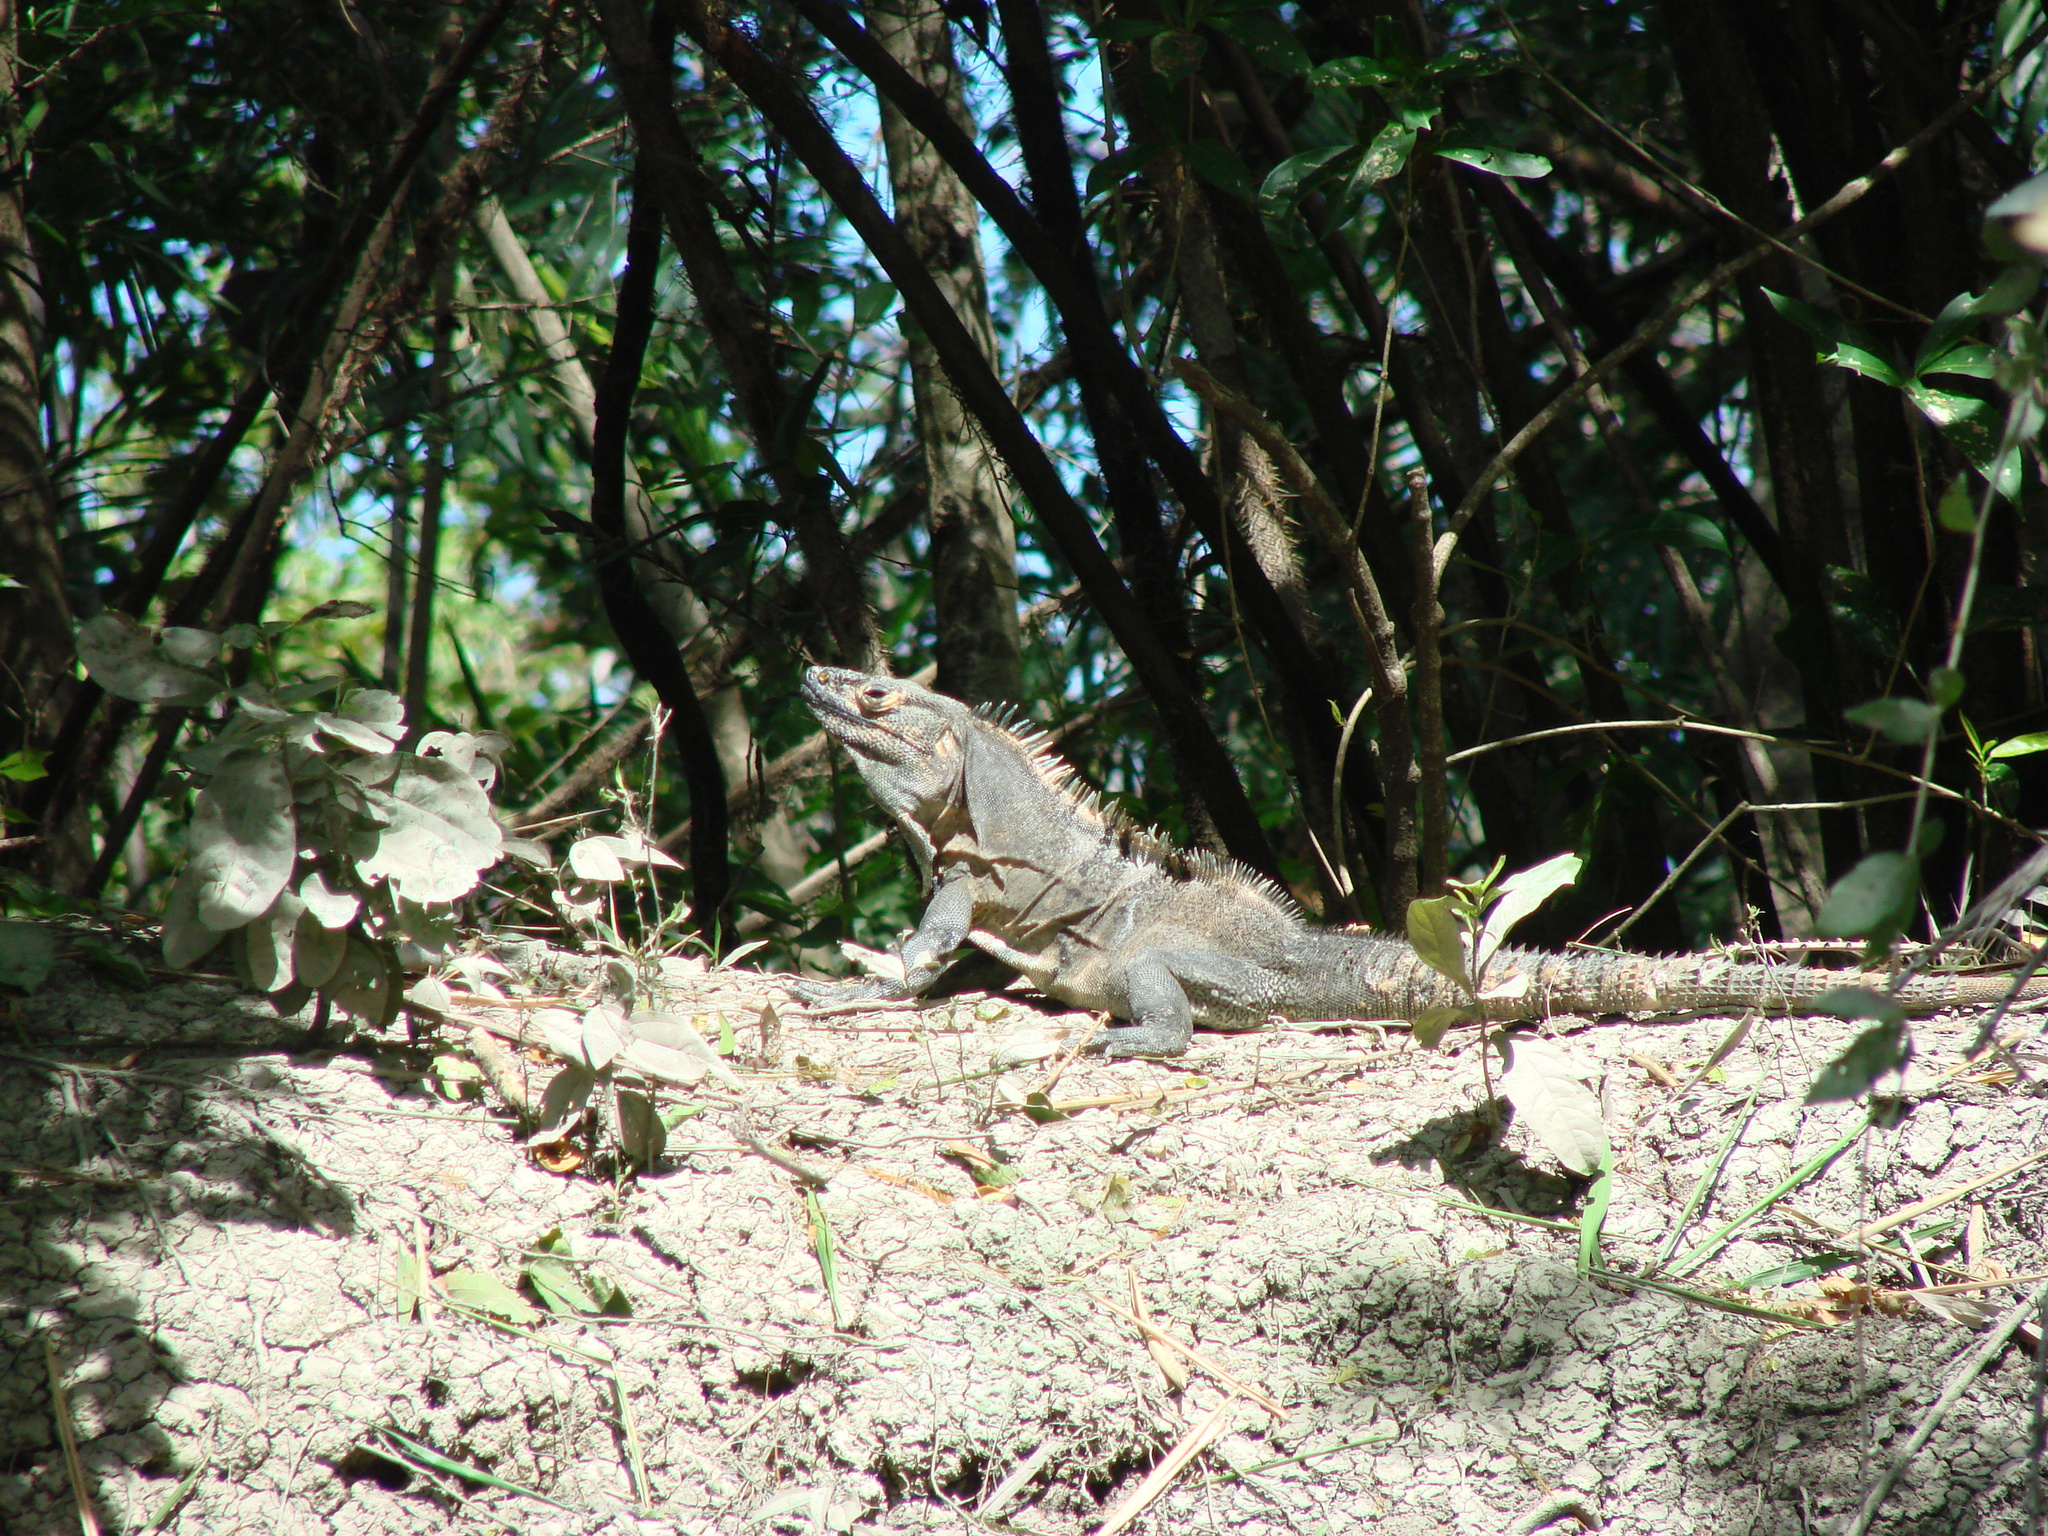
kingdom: Animalia
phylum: Chordata
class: Squamata
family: Iguanidae
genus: Ctenosaura
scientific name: Ctenosaura similis
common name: Black spiny-tailed iguana
